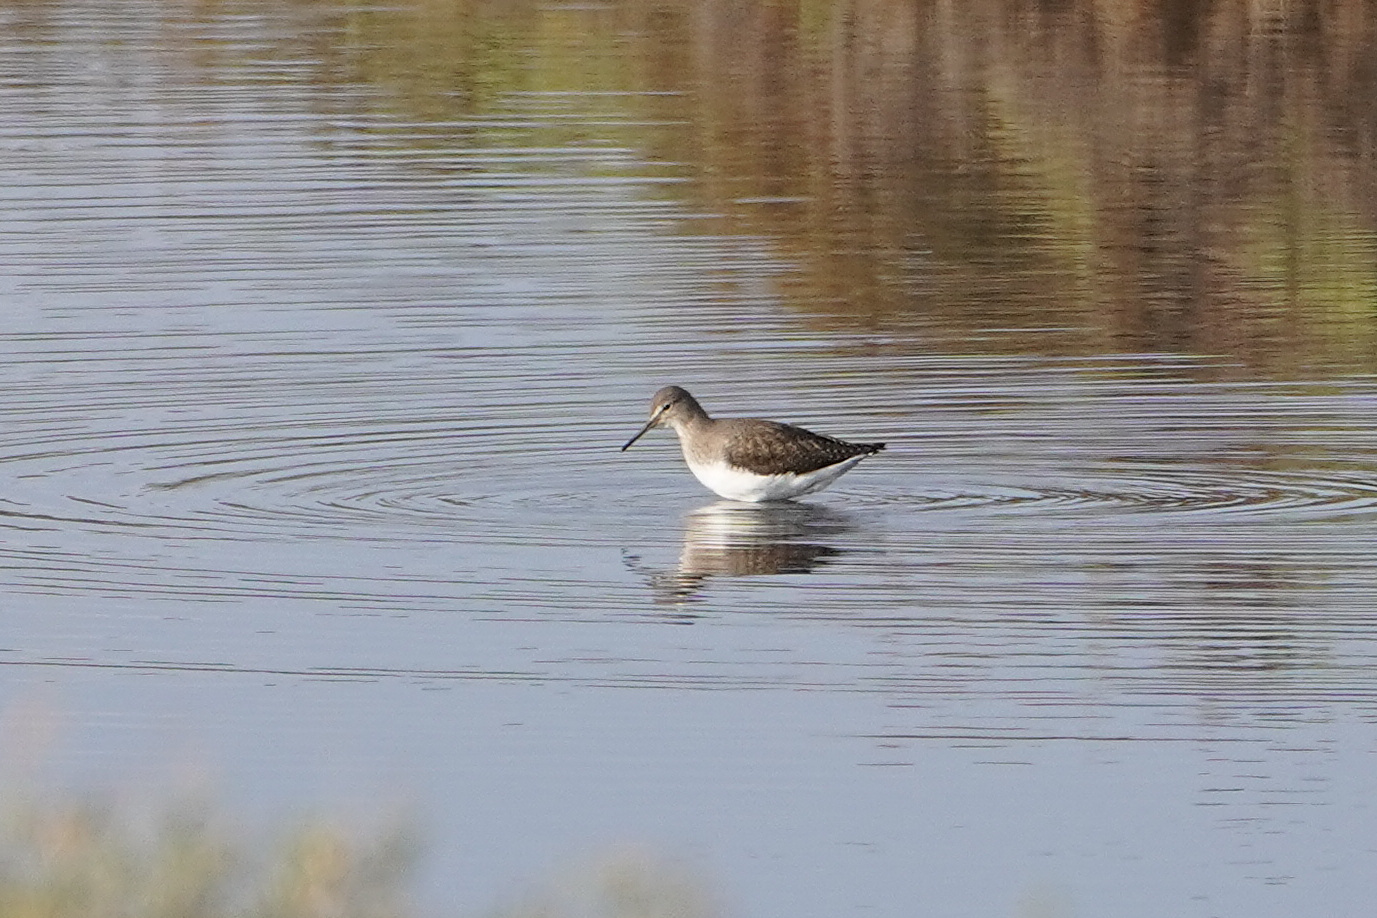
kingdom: Animalia
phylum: Chordata
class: Aves
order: Charadriiformes
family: Scolopacidae
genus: Tringa
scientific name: Tringa ochropus
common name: Green sandpiper
